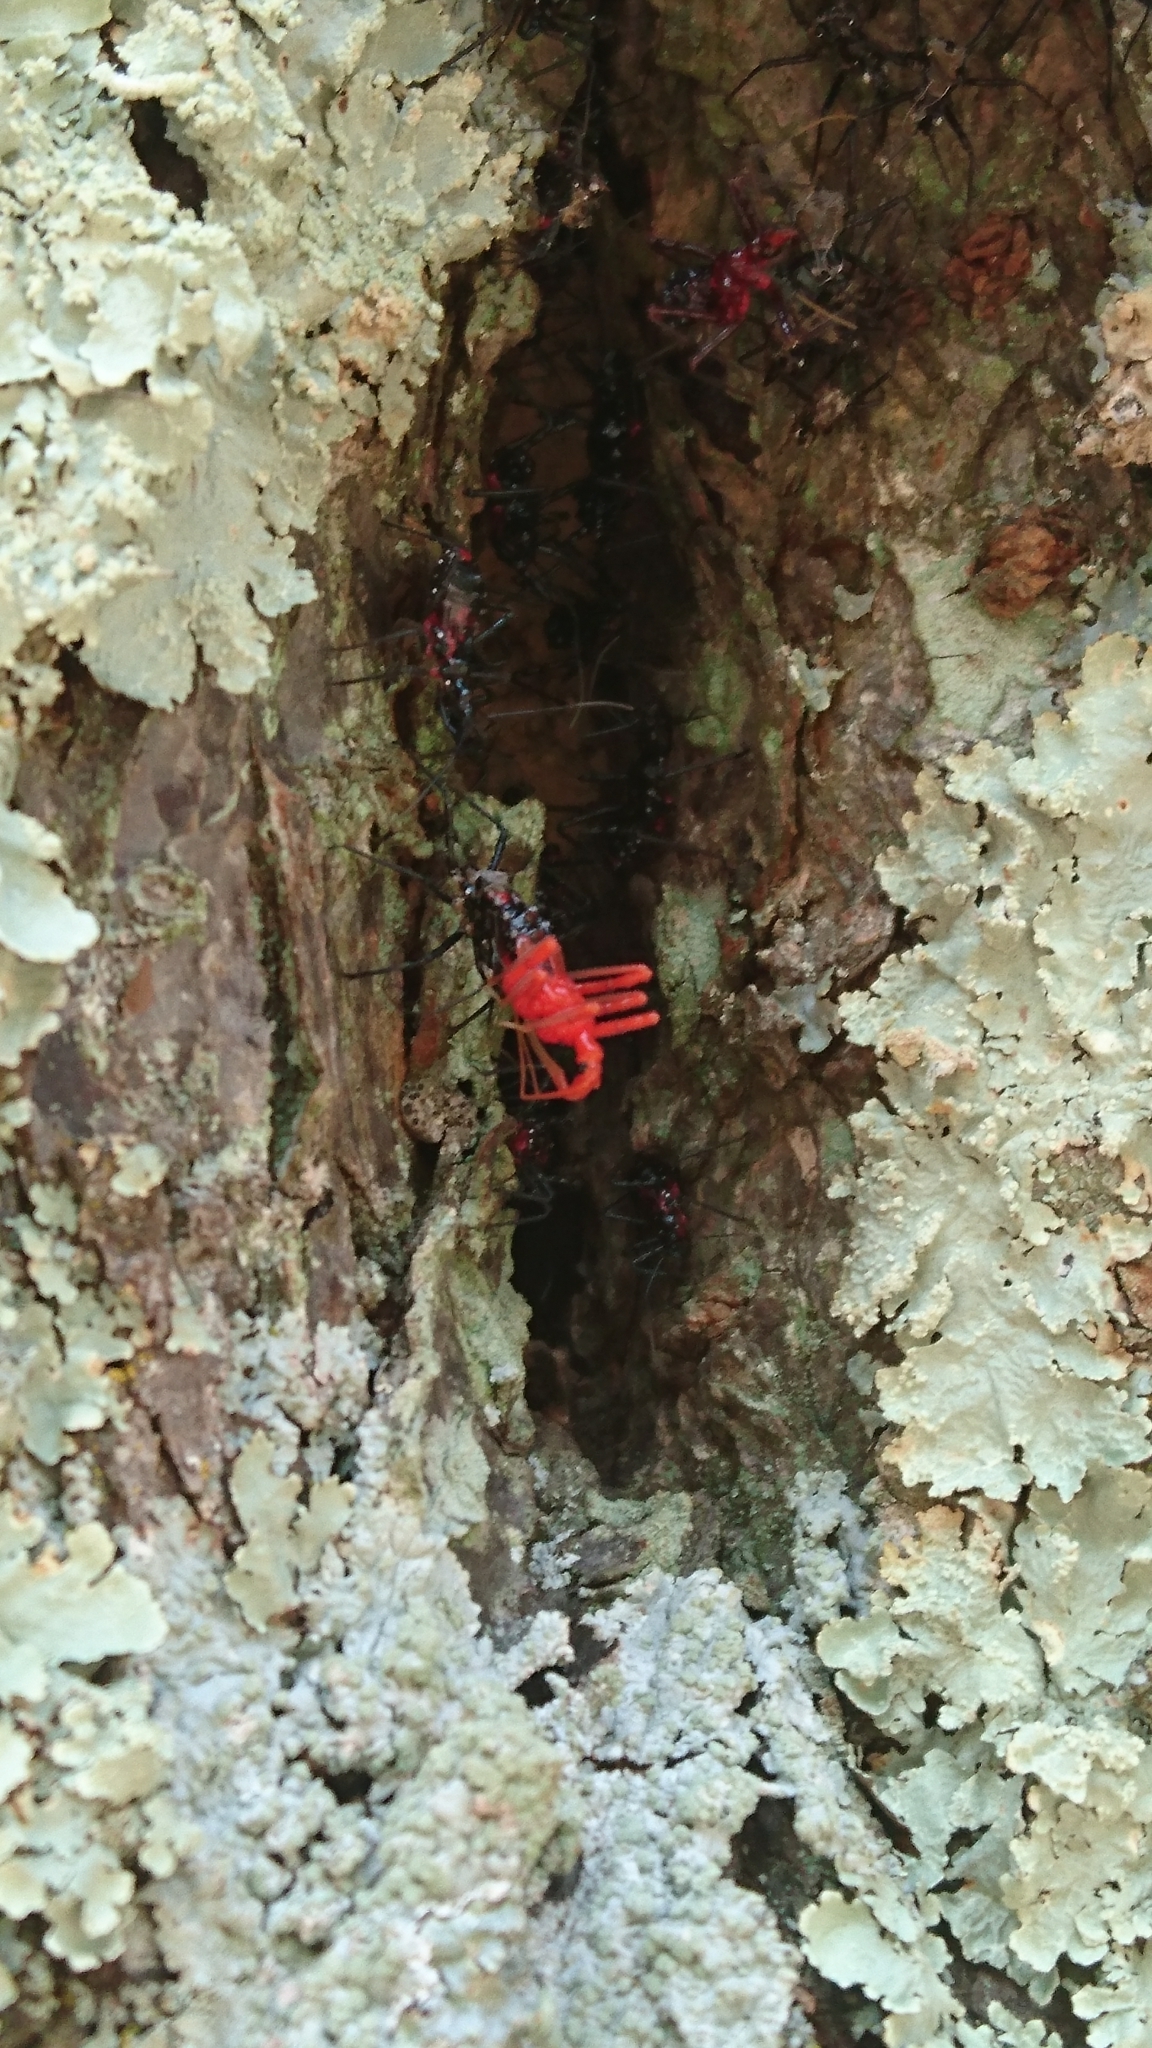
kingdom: Animalia
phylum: Arthropoda
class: Insecta
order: Hemiptera
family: Reduviidae
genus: Agriosphodrus
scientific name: Agriosphodrus dohrni
